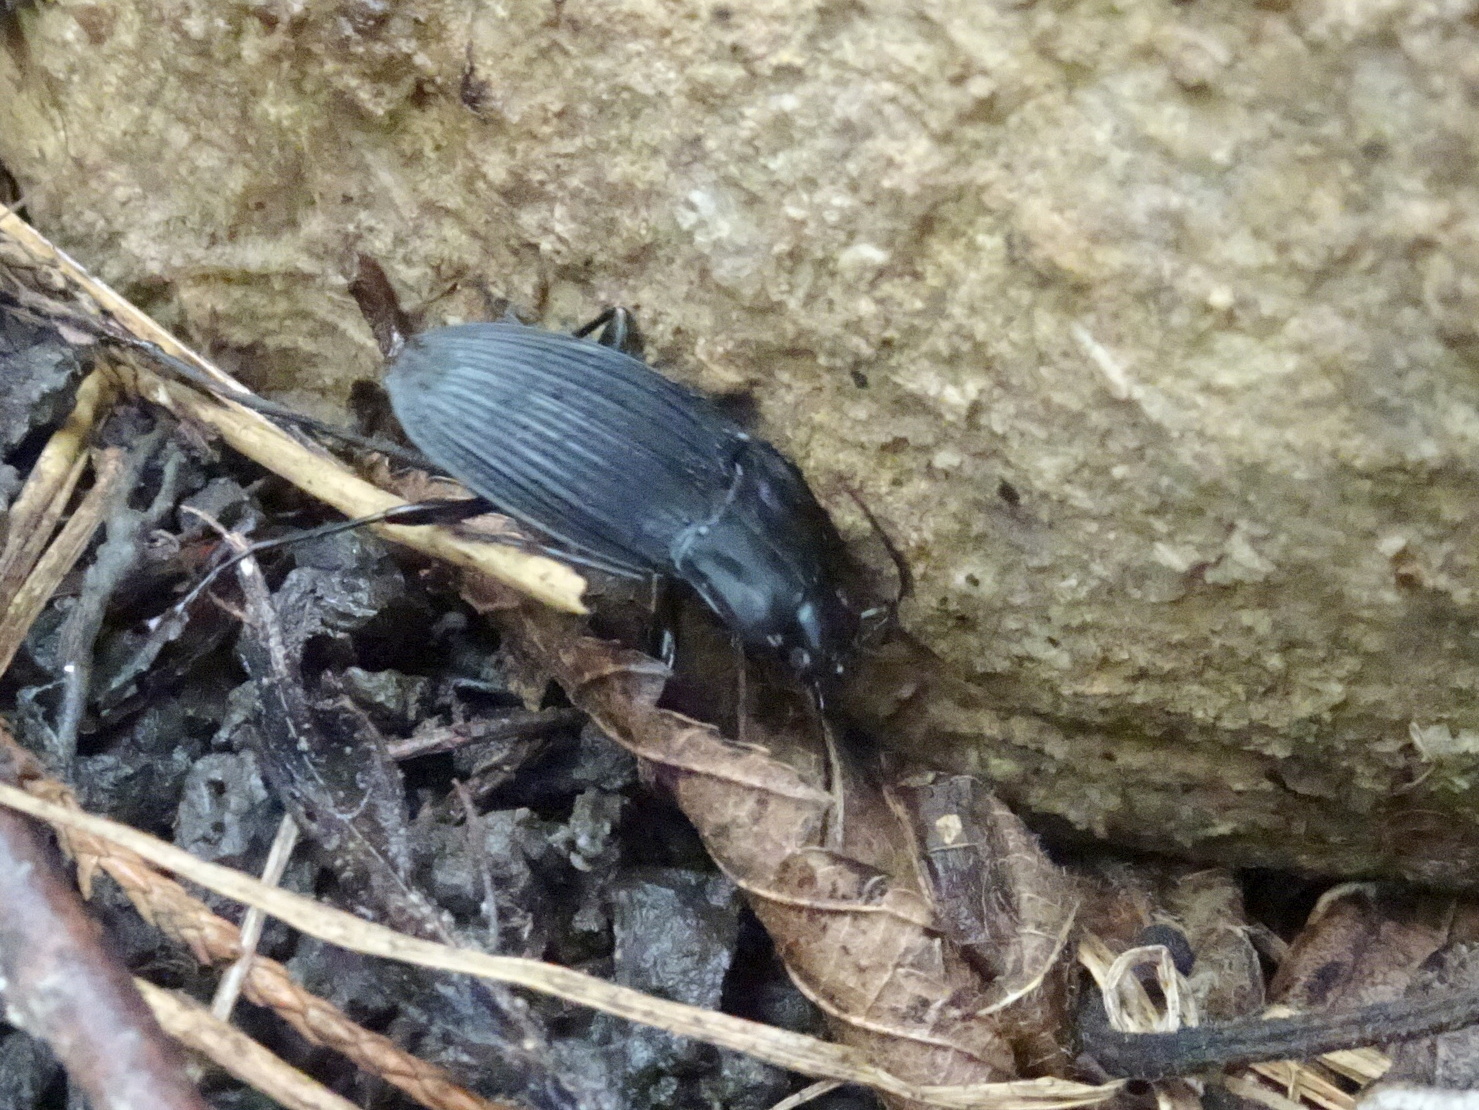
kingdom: Animalia
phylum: Arthropoda
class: Insecta
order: Coleoptera
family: Carabidae
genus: Dicaelus
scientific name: Dicaelus purpuratus
